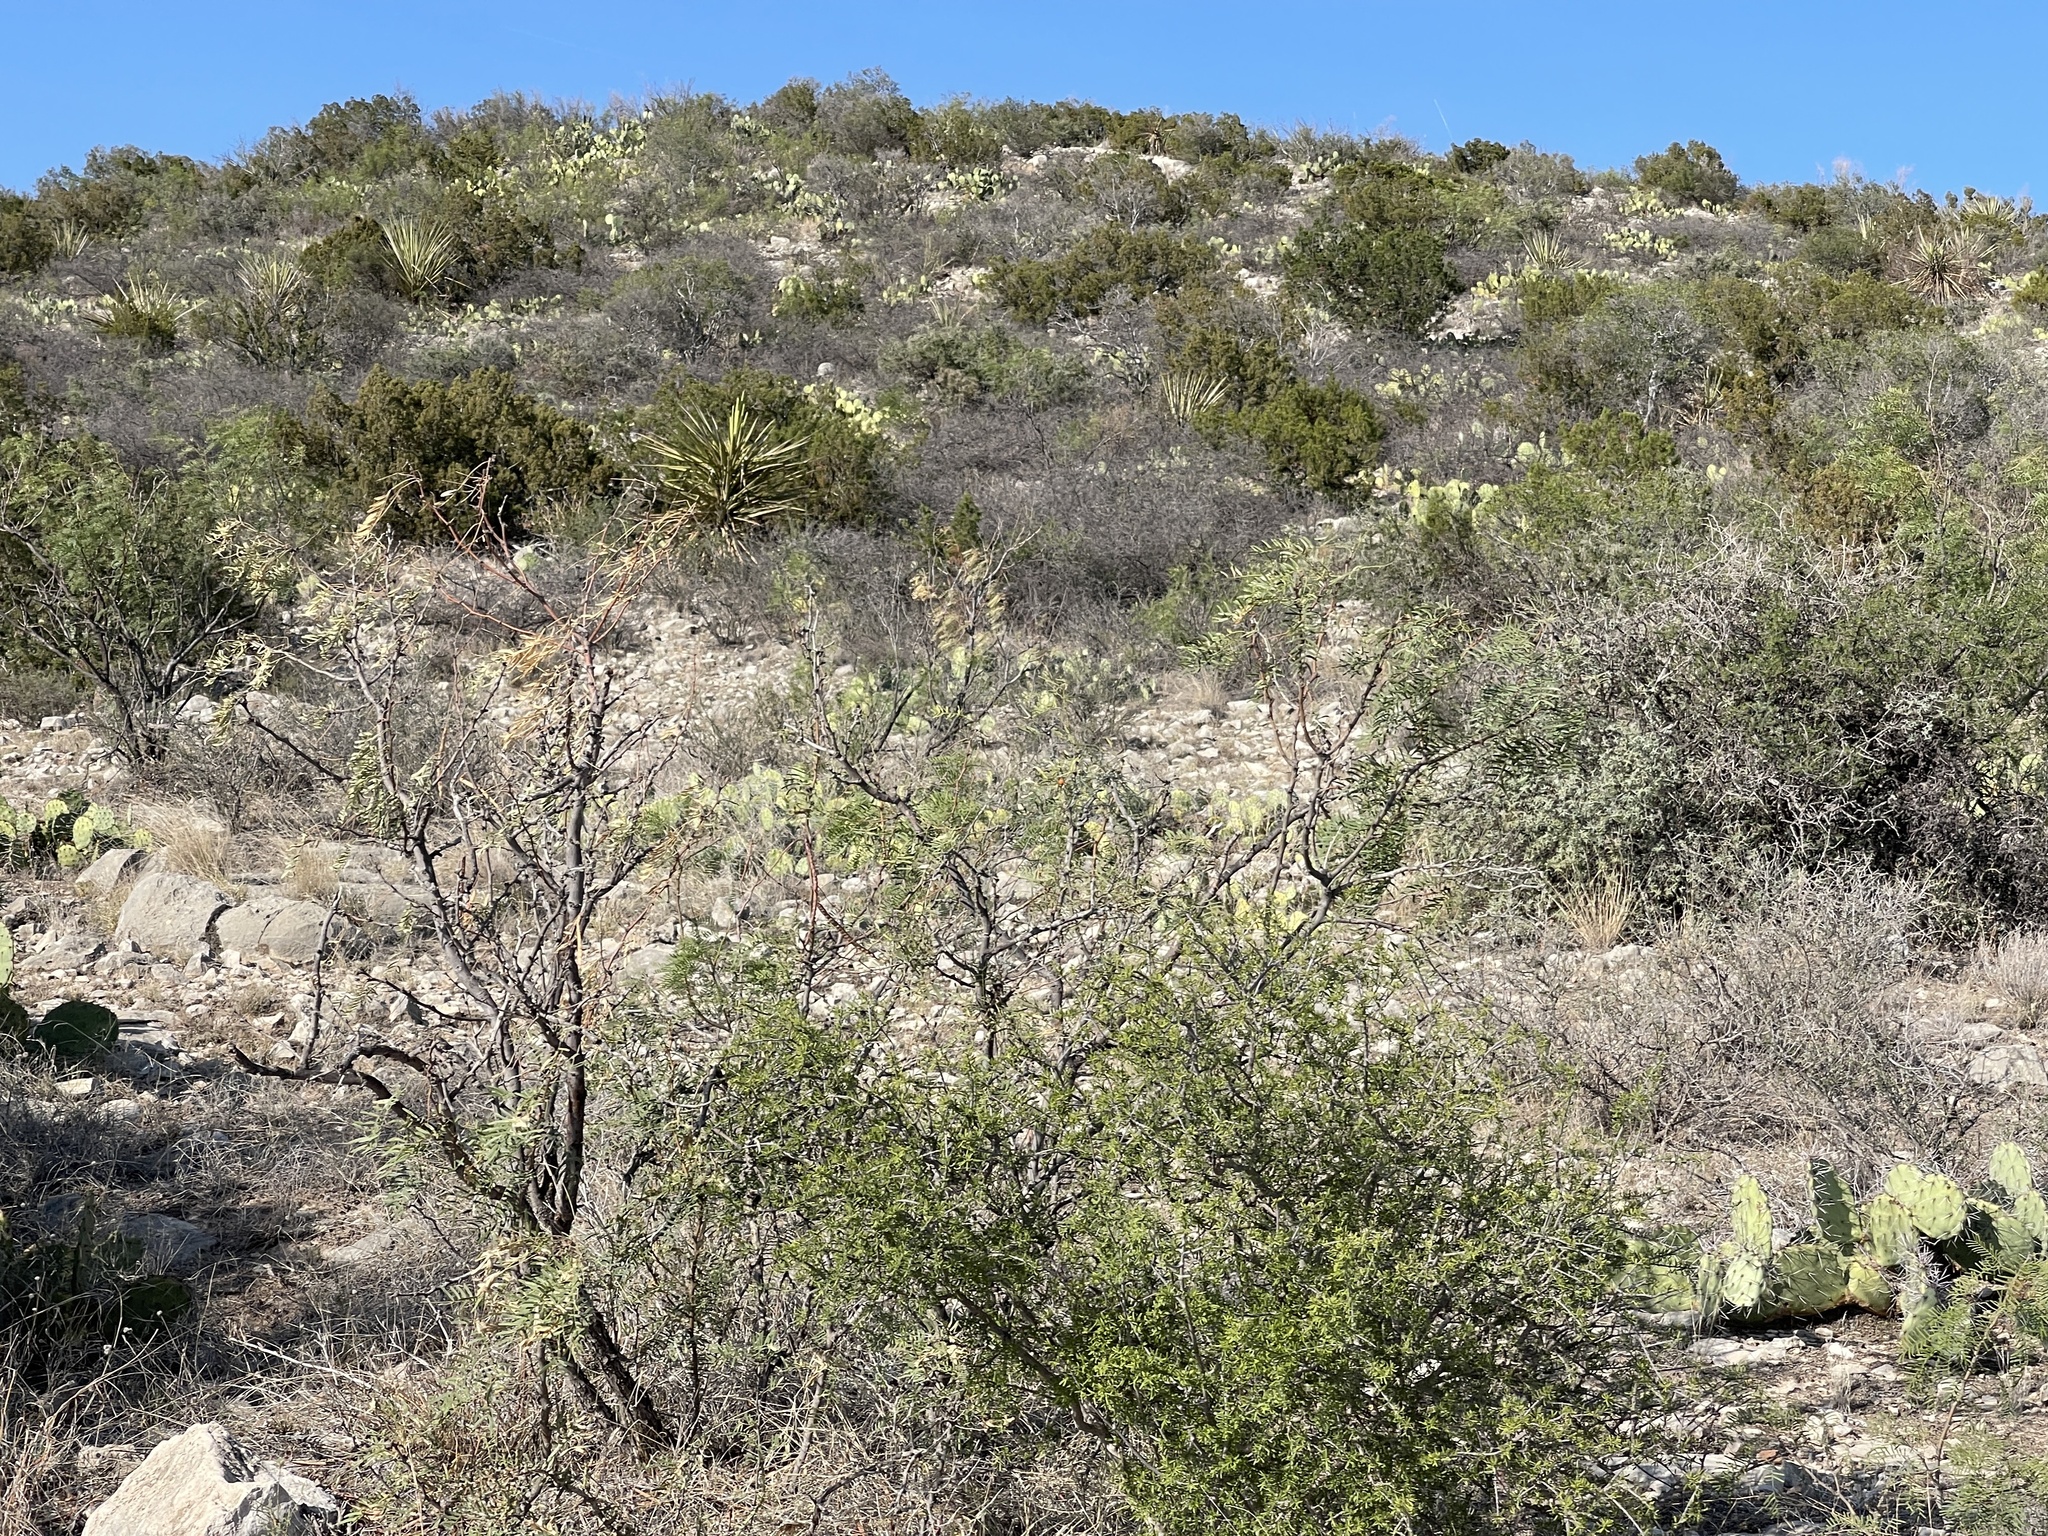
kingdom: Plantae
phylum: Tracheophyta
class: Magnoliopsida
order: Fabales
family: Fabaceae
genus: Prosopis
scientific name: Prosopis glandulosa
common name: Honey mesquite
